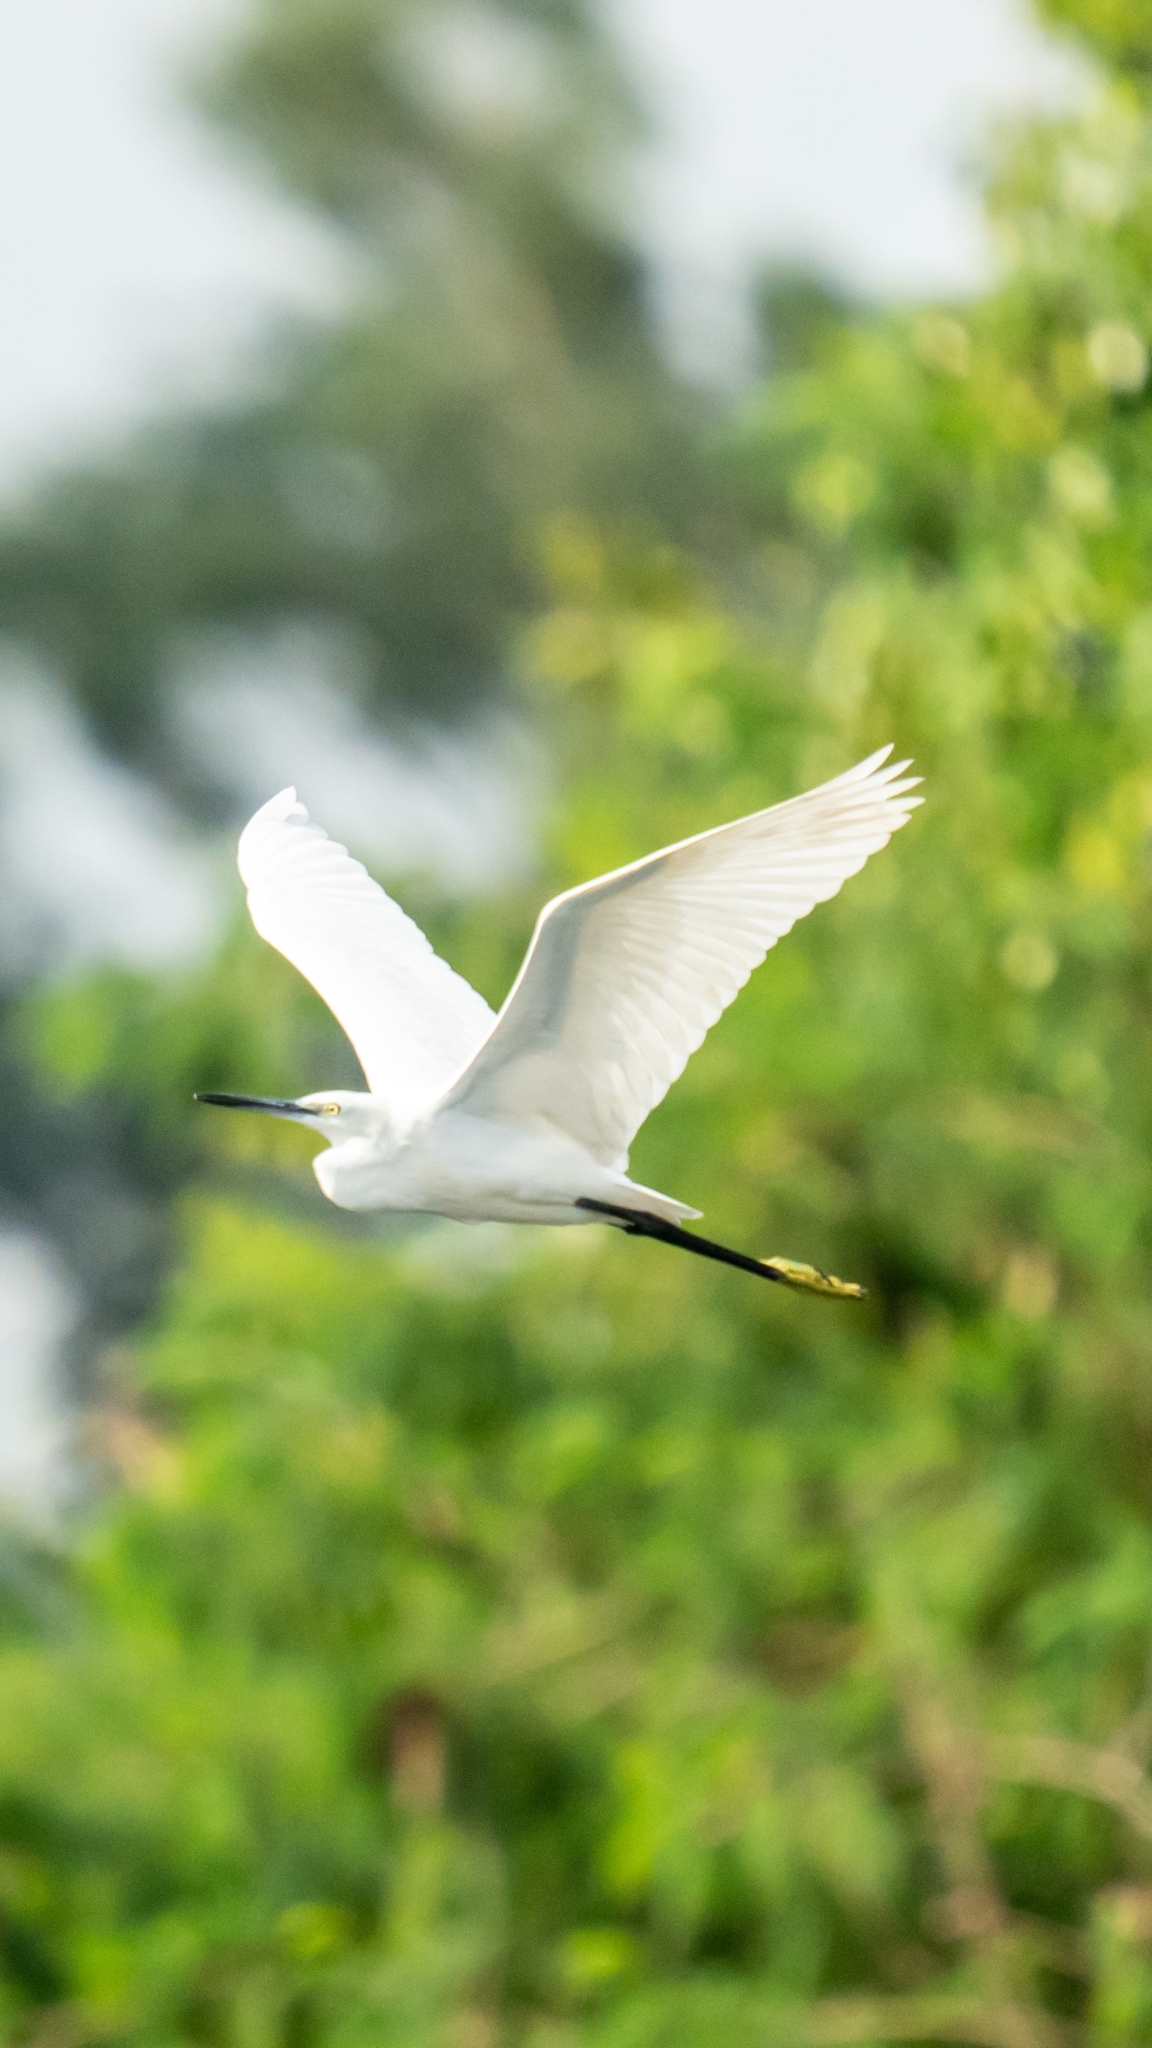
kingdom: Animalia
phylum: Chordata
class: Aves
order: Pelecaniformes
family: Ardeidae
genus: Egretta
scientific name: Egretta garzetta
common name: Little egret
